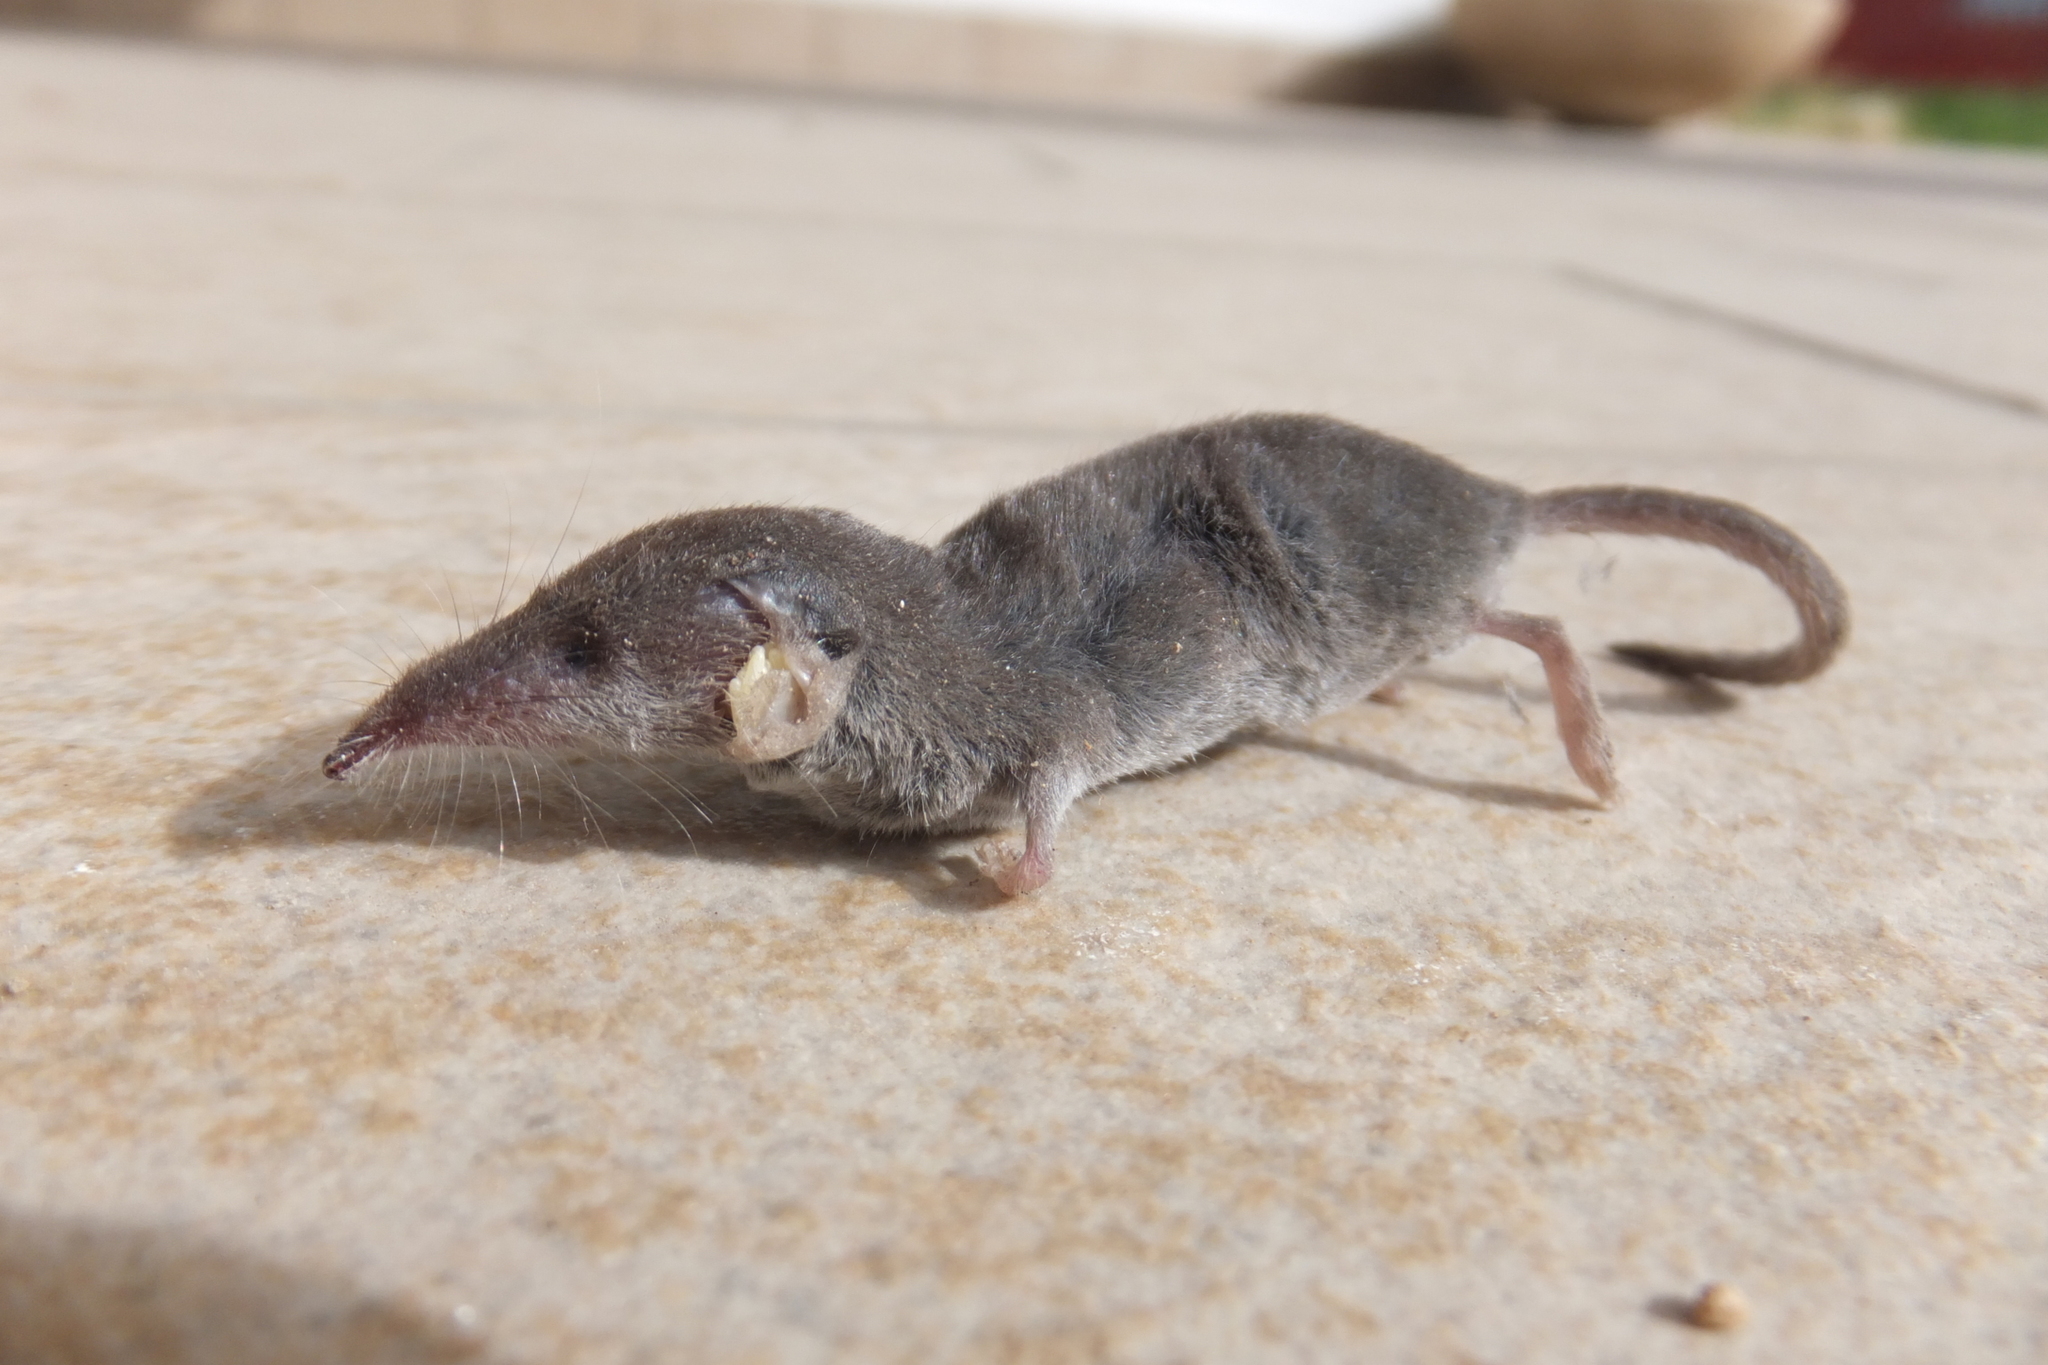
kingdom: Animalia
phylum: Chordata
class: Mammalia
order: Soricomorpha
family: Soricidae
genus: Suncus
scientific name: Suncus etruscus
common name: Etruscan shrew
